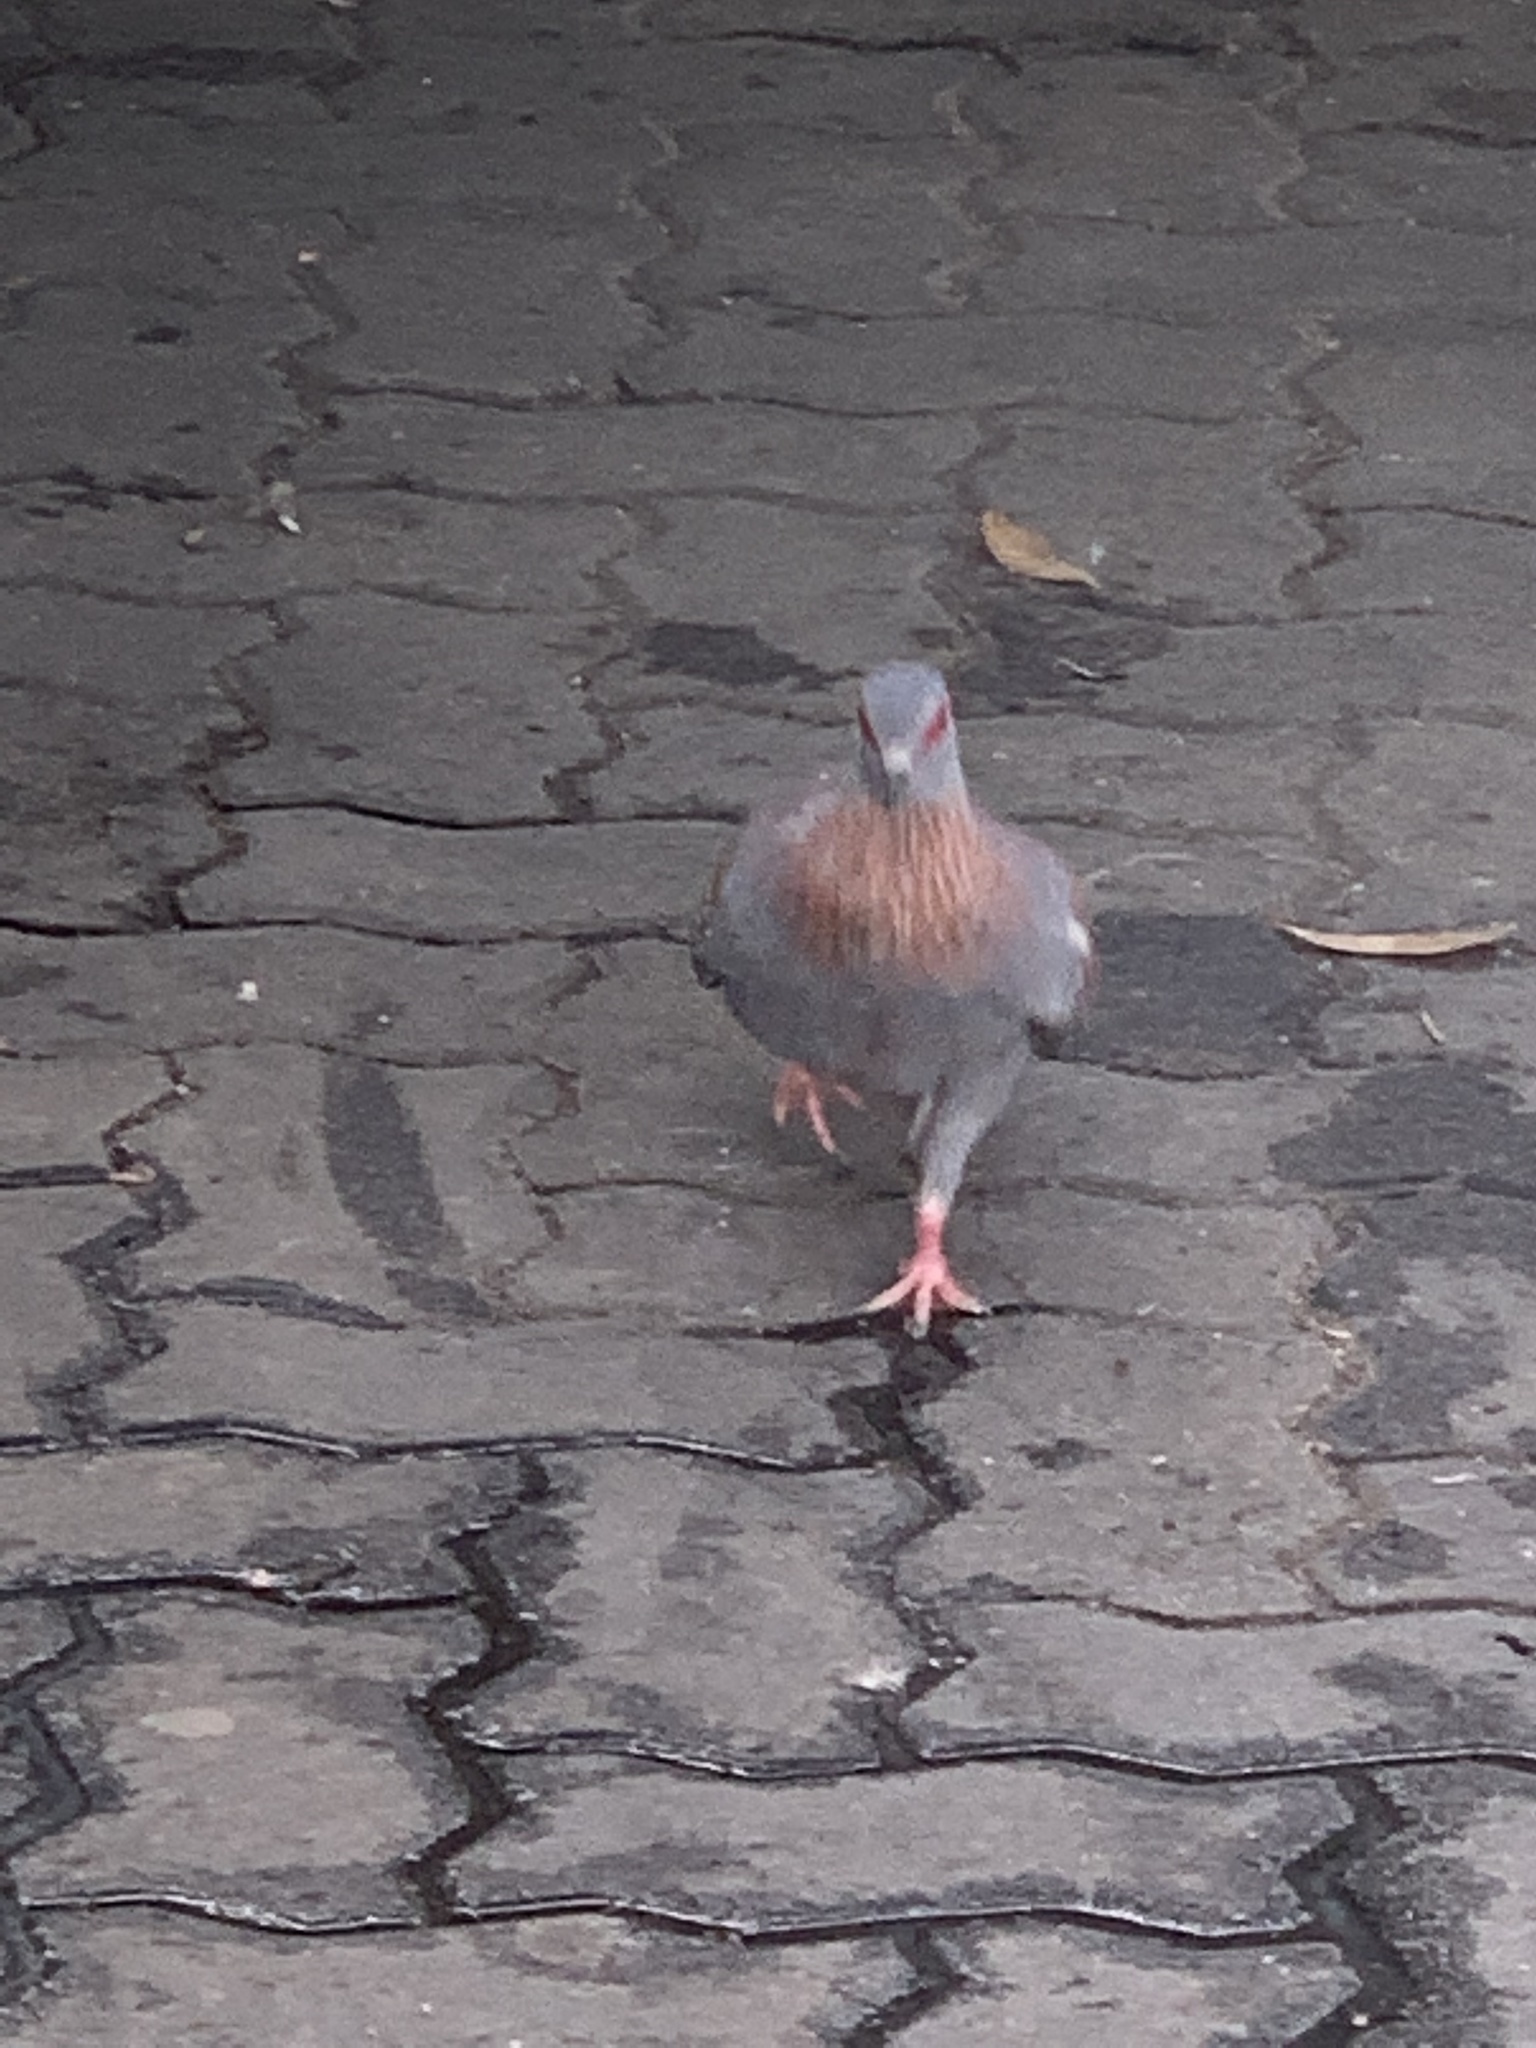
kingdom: Animalia
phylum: Chordata
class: Aves
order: Columbiformes
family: Columbidae
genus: Columba
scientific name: Columba guinea
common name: Speckled pigeon
